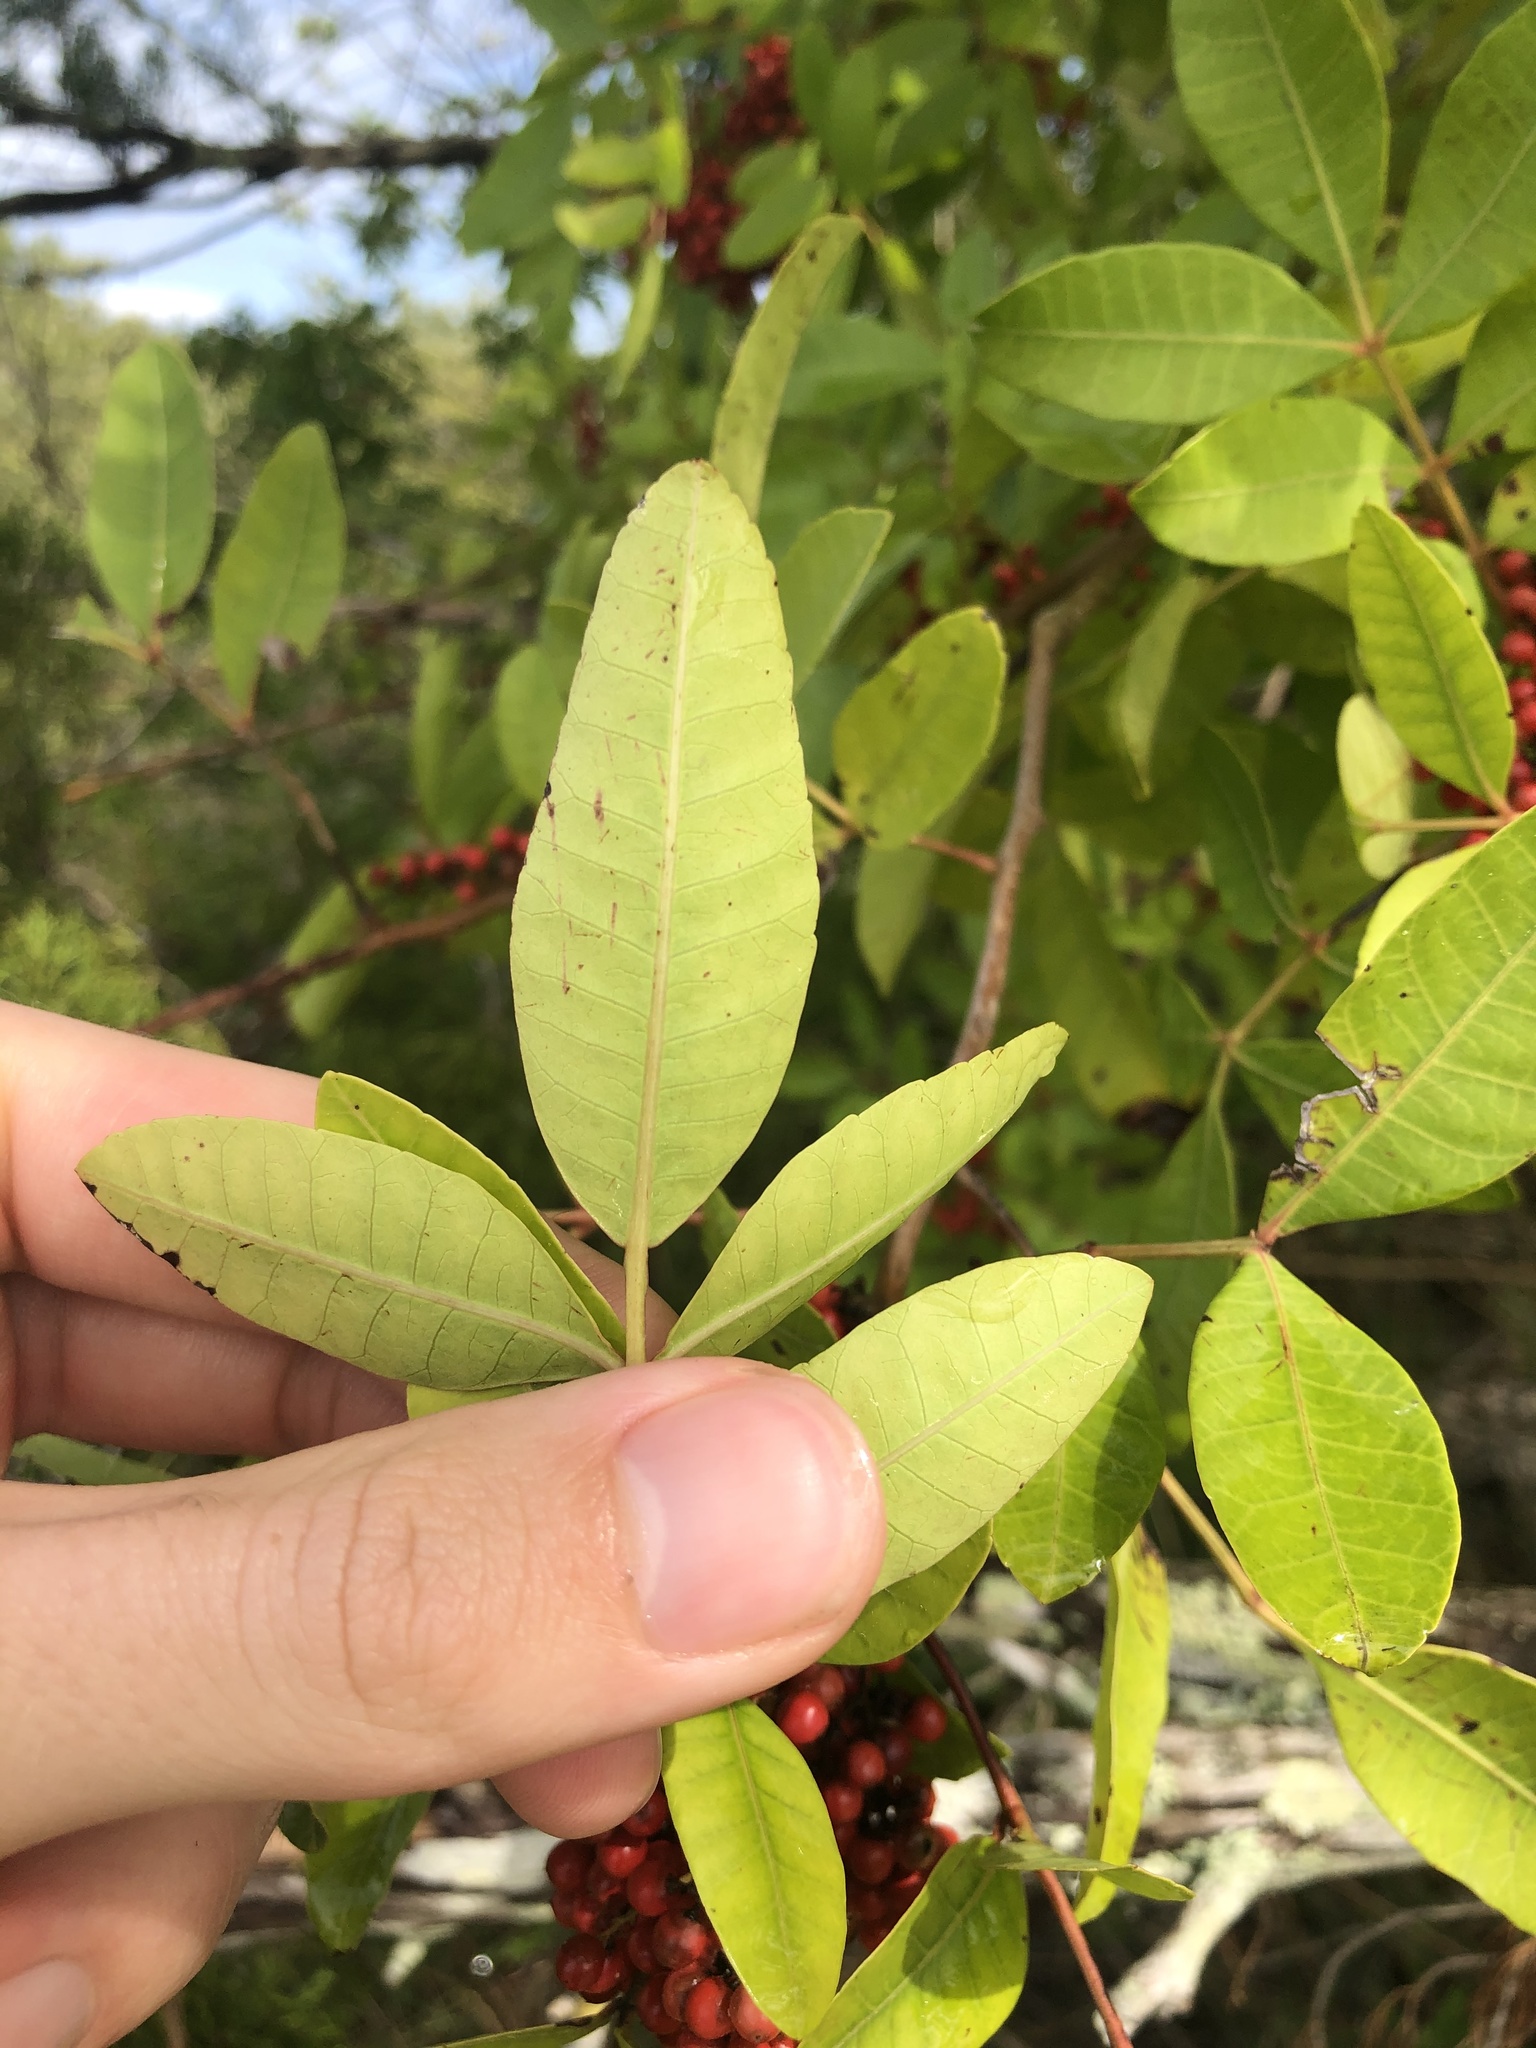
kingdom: Plantae
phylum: Tracheophyta
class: Magnoliopsida
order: Sapindales
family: Anacardiaceae
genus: Schinus
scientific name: Schinus terebinthifolia
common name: Brazilian peppertree
